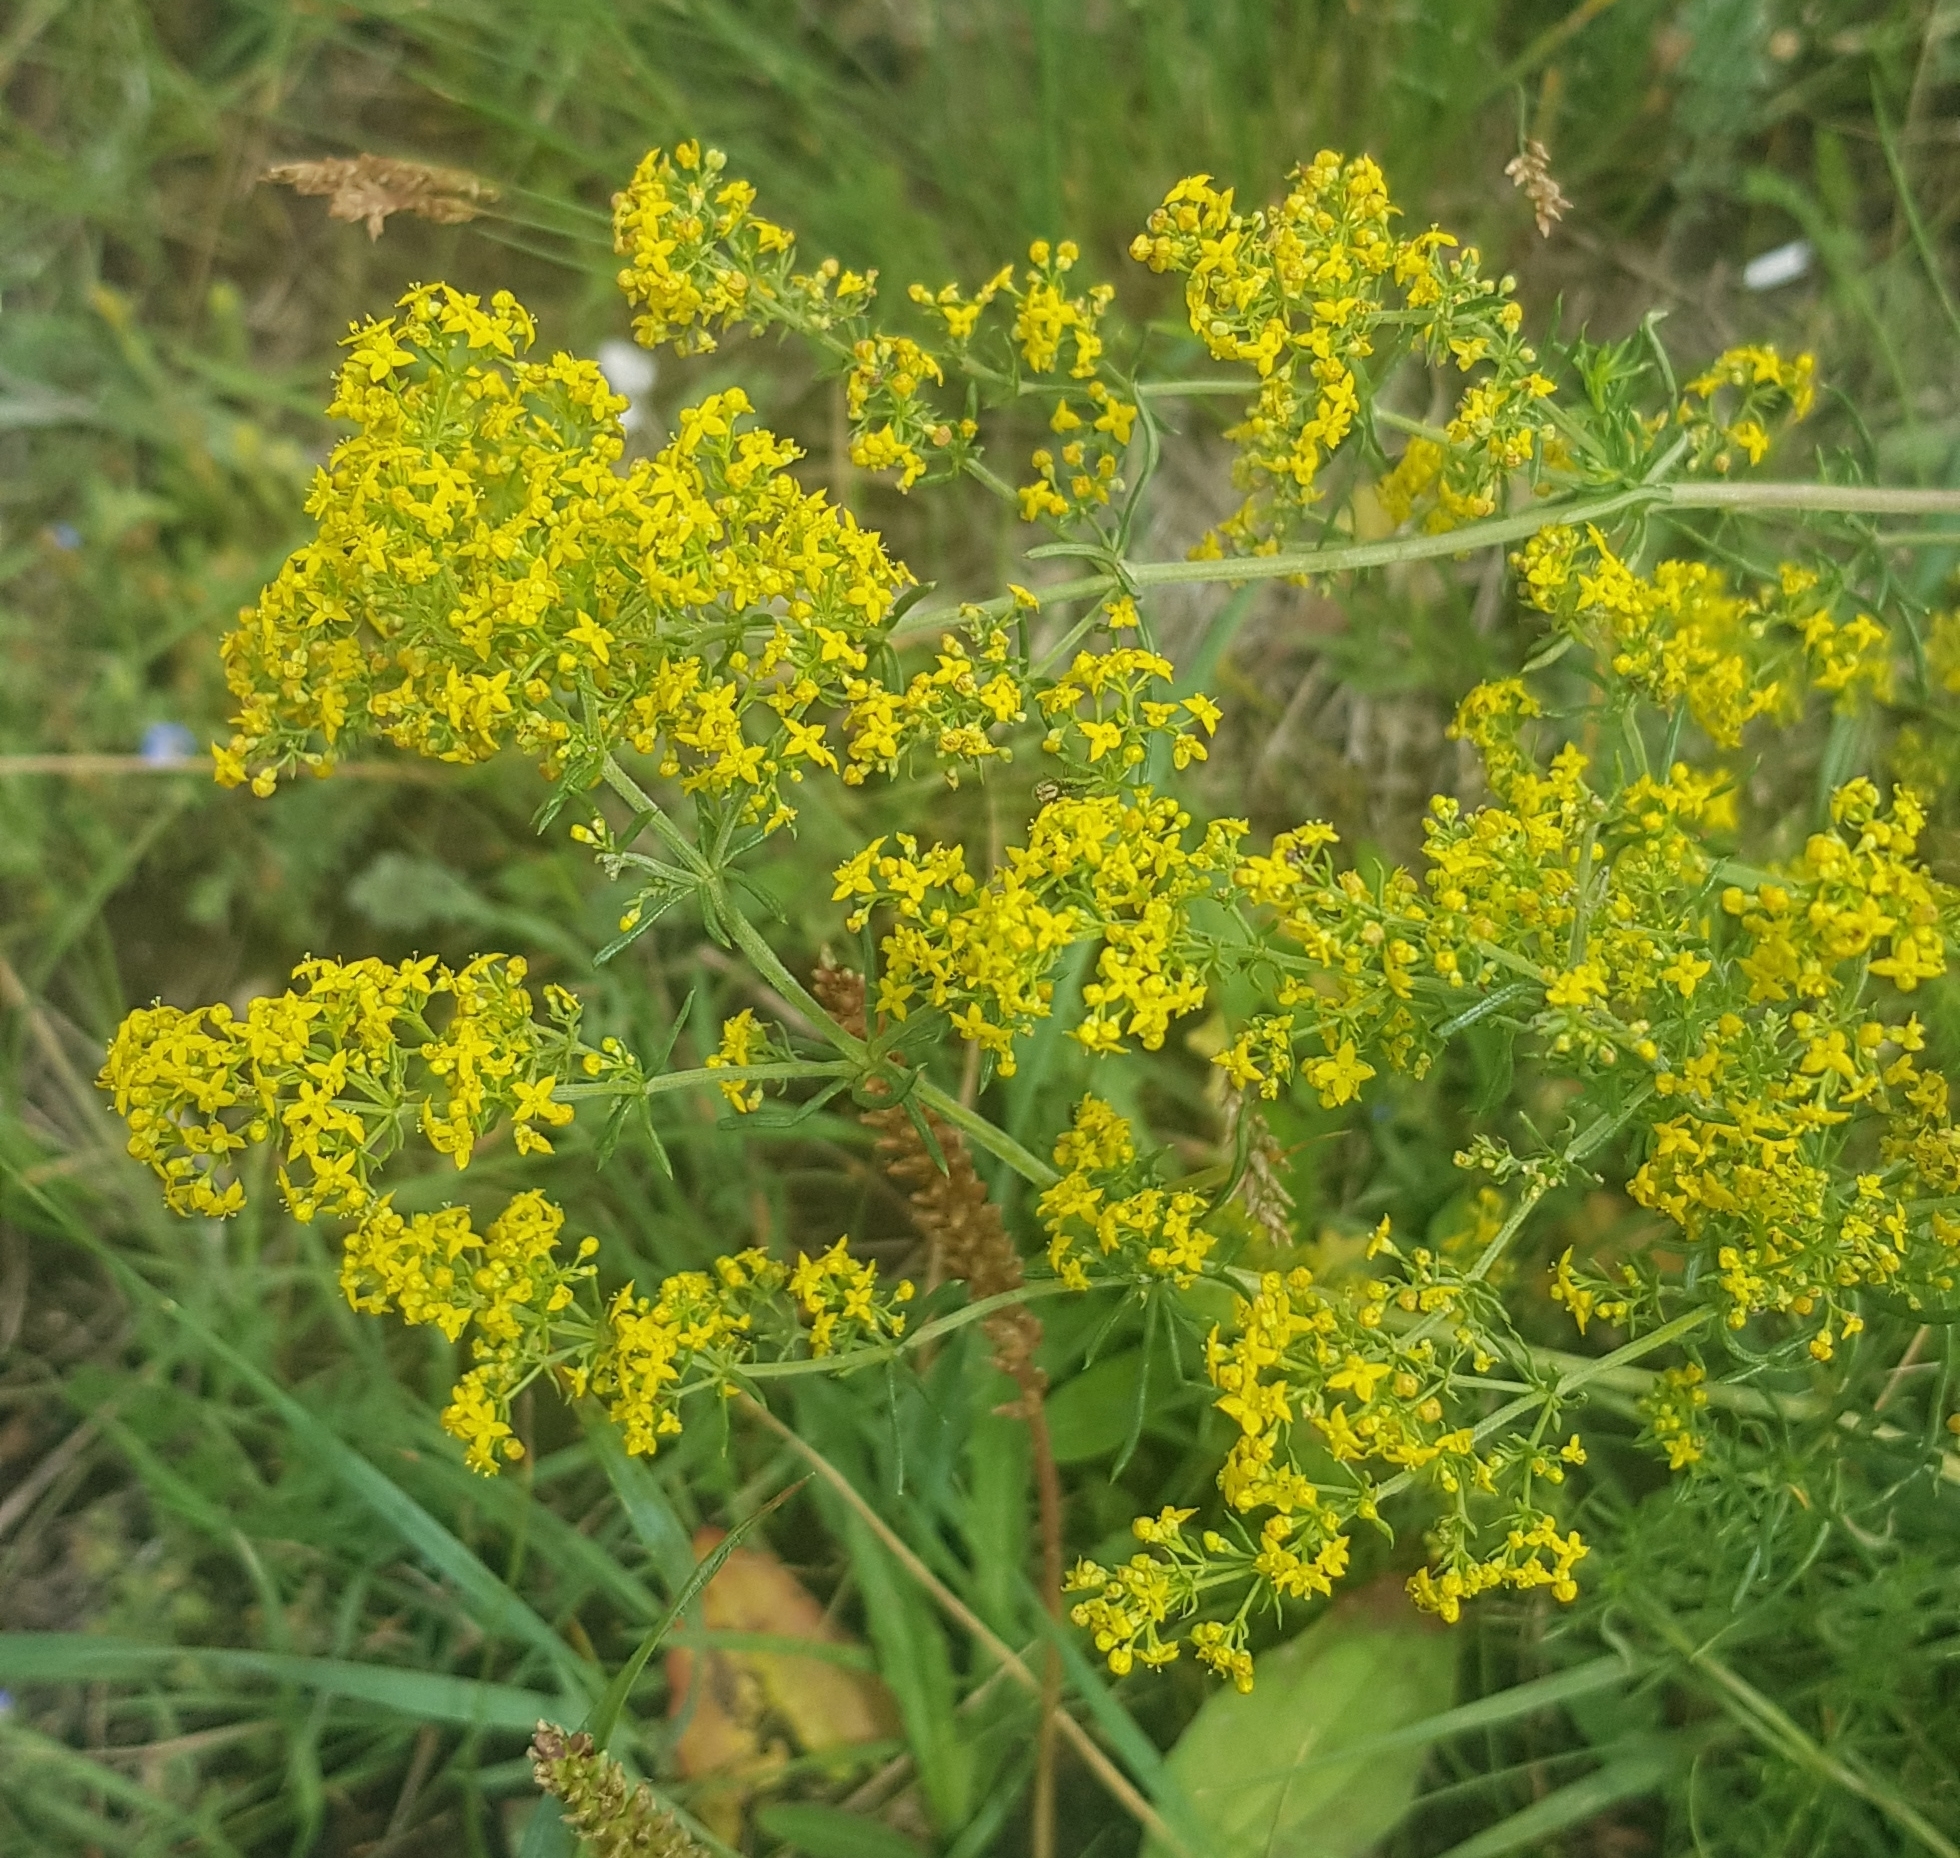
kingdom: Plantae
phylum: Tracheophyta
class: Magnoliopsida
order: Gentianales
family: Rubiaceae
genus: Galium
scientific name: Galium verum
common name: Lady's bedstraw
